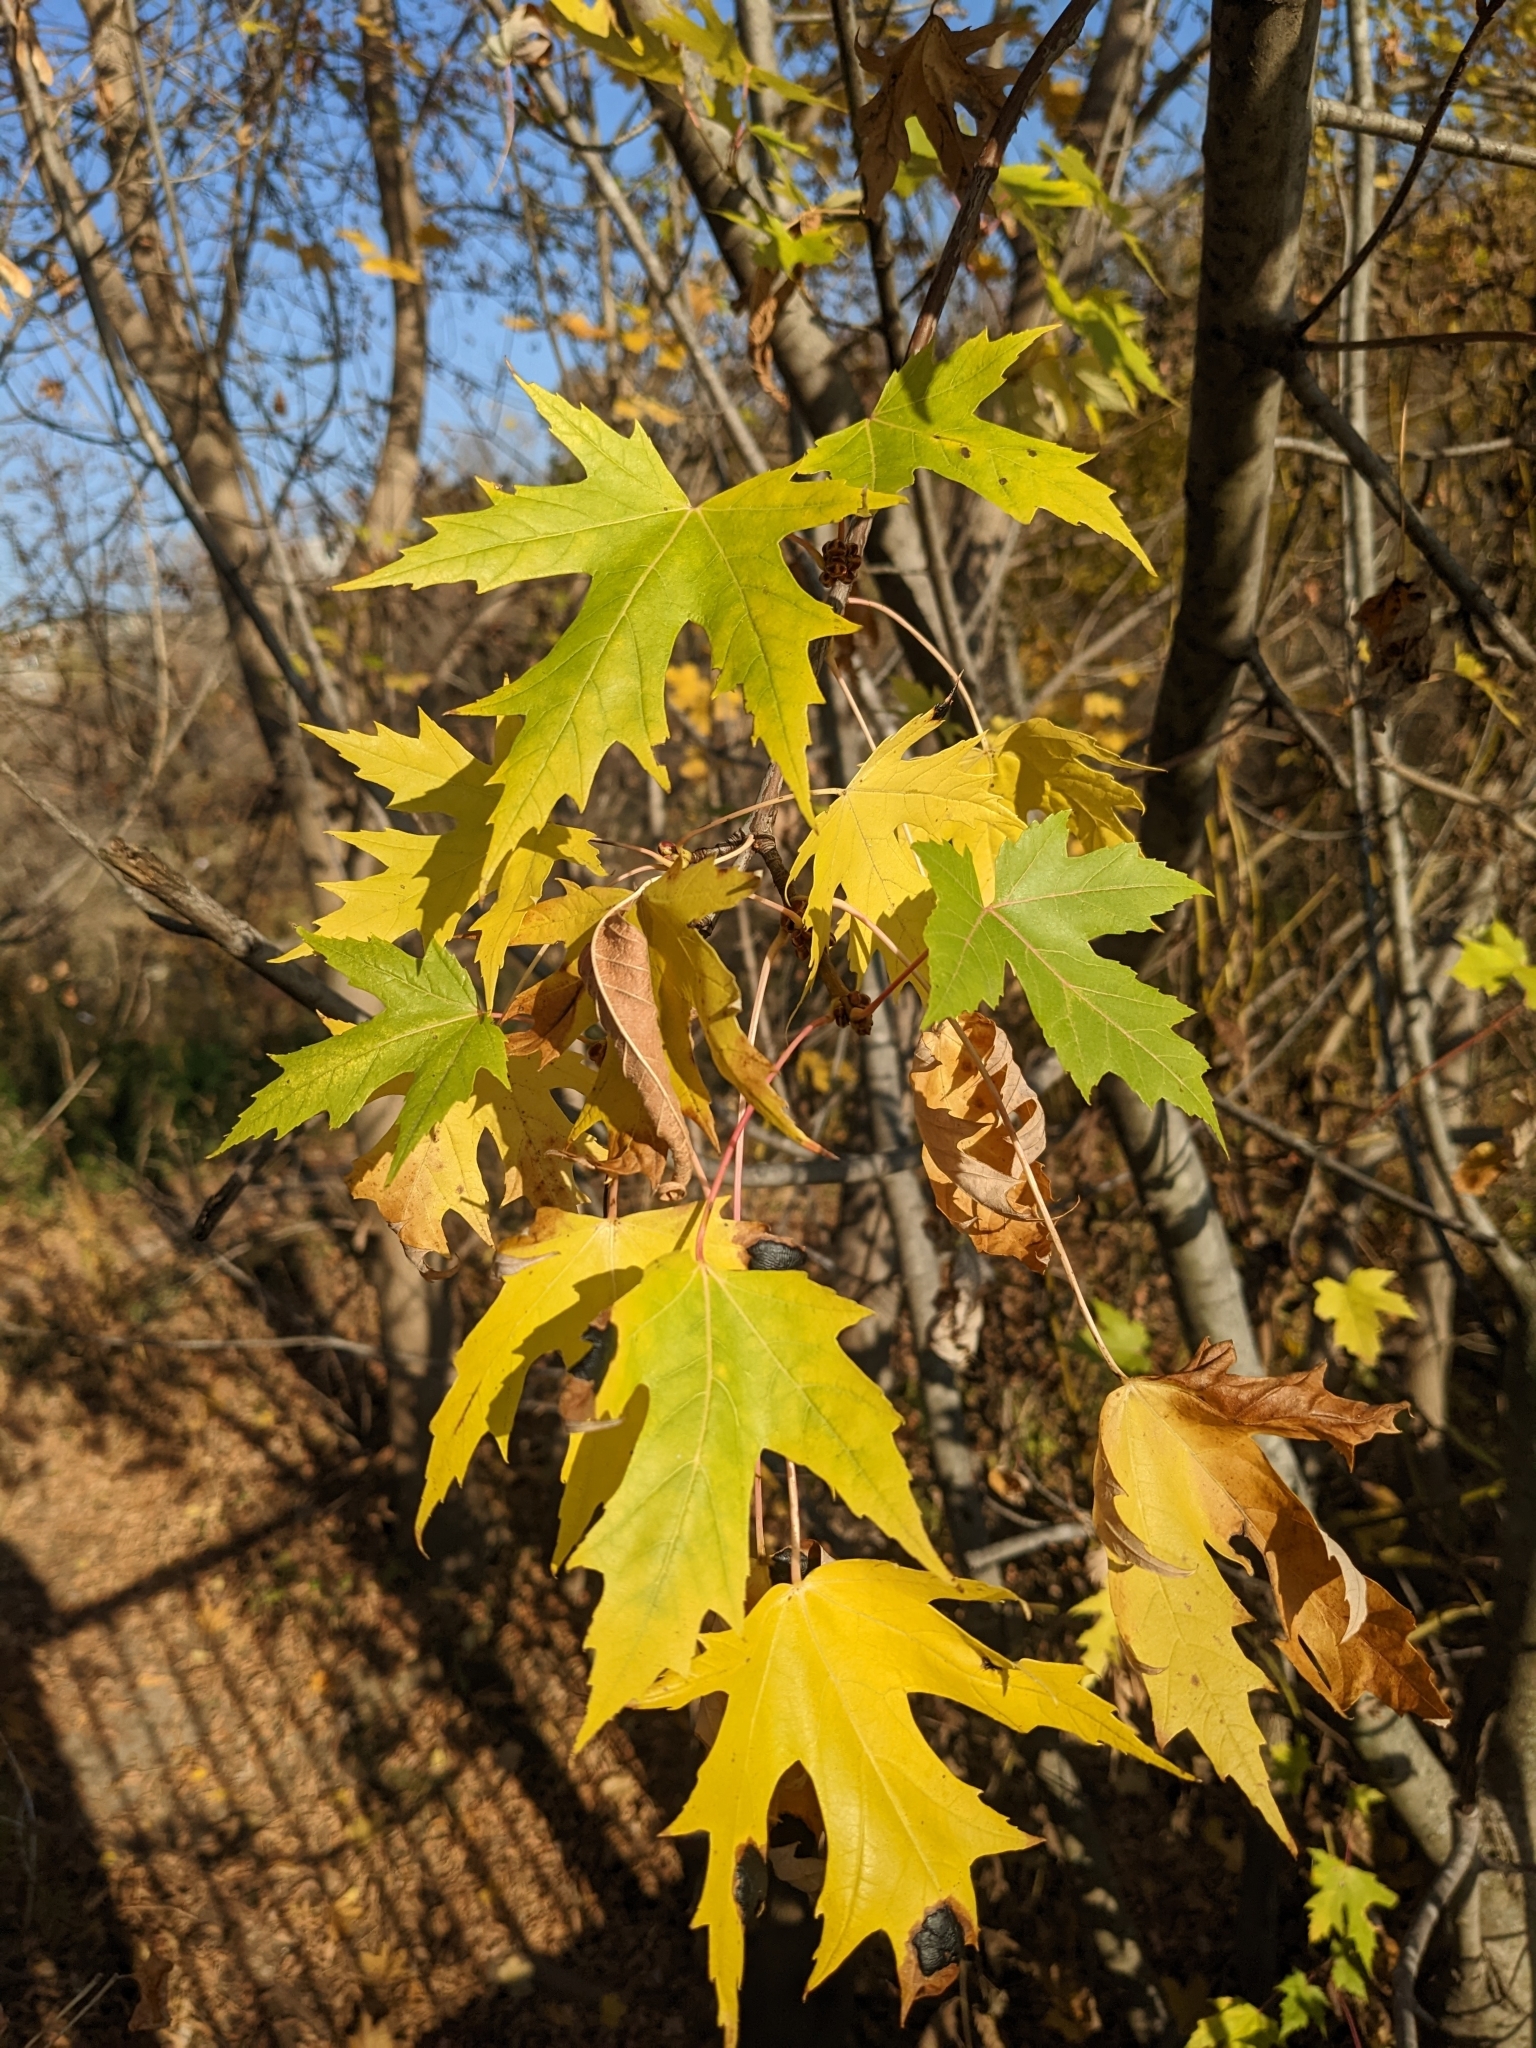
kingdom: Plantae
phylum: Tracheophyta
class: Magnoliopsida
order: Sapindales
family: Sapindaceae
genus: Acer
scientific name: Acer saccharinum
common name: Silver maple
